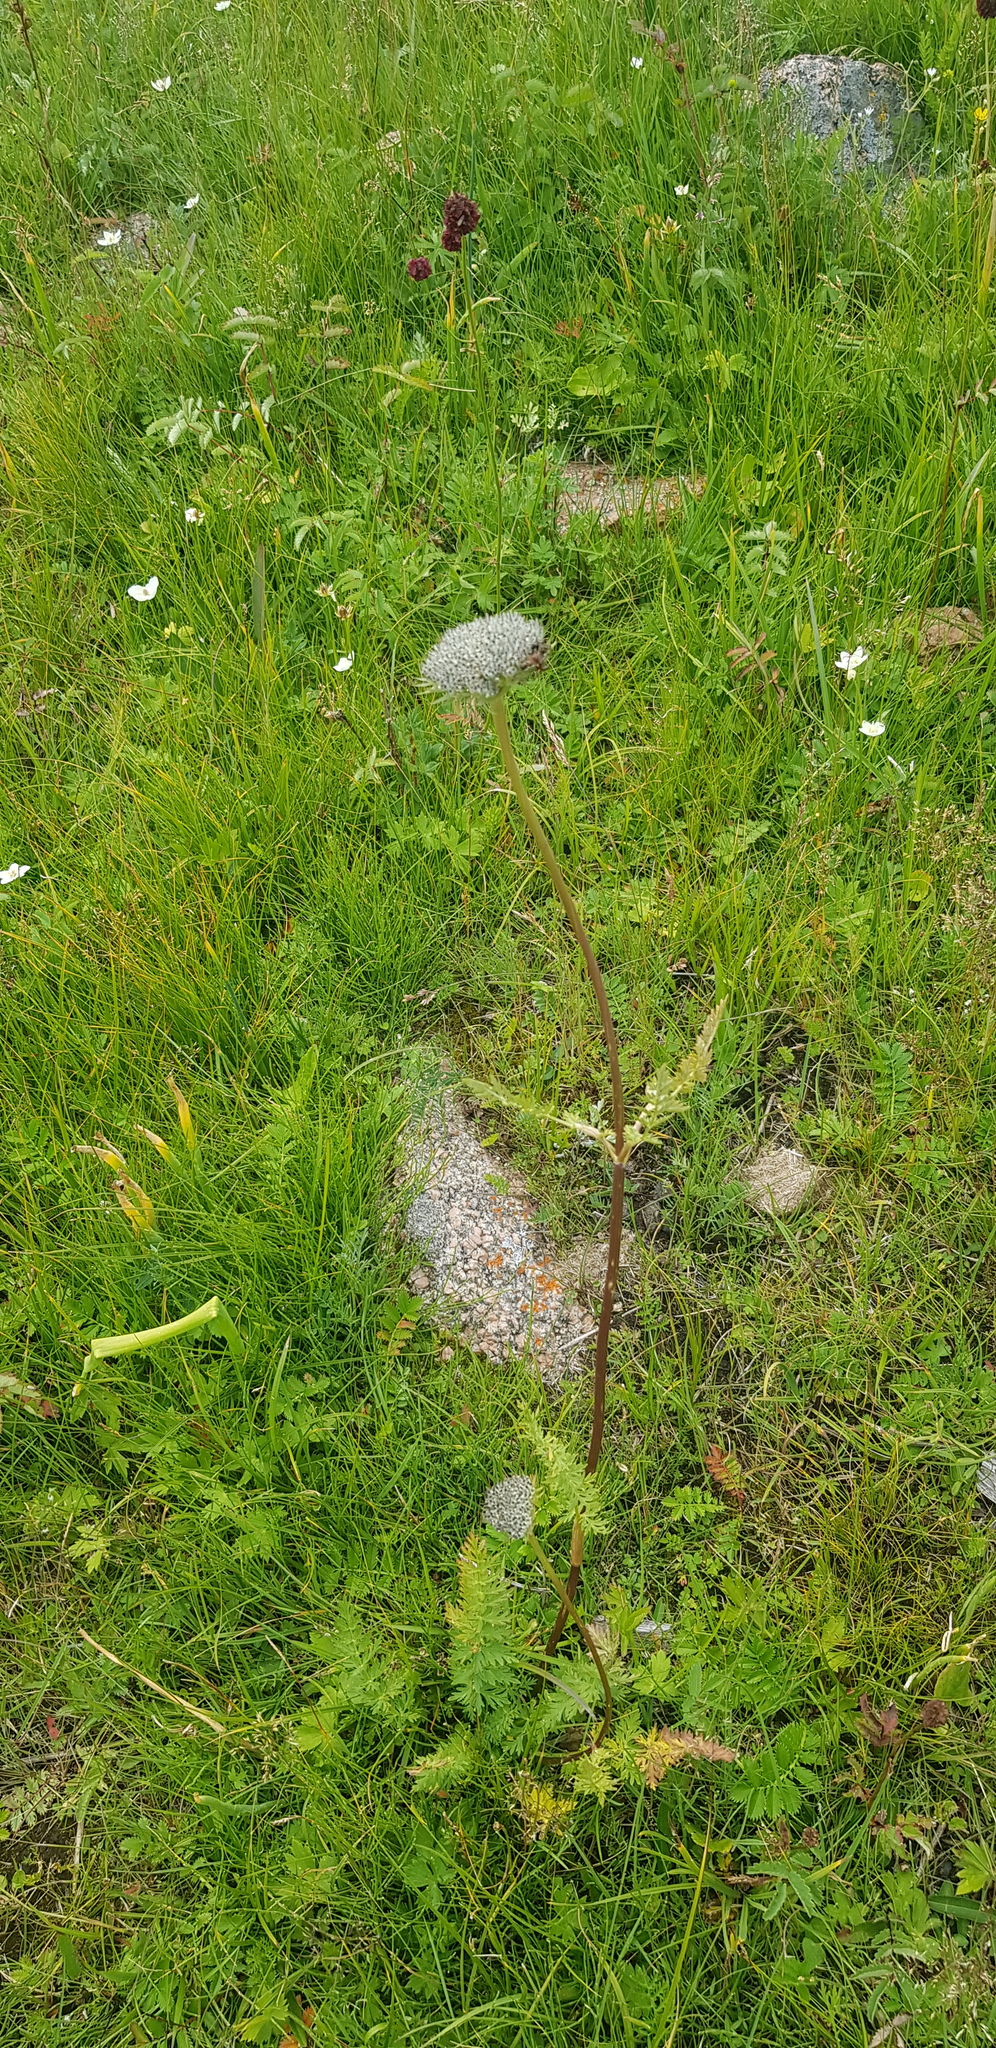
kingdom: Plantae
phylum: Tracheophyta
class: Magnoliopsida
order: Apiales
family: Apiaceae
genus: Seseli
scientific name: Seseli condensatum
